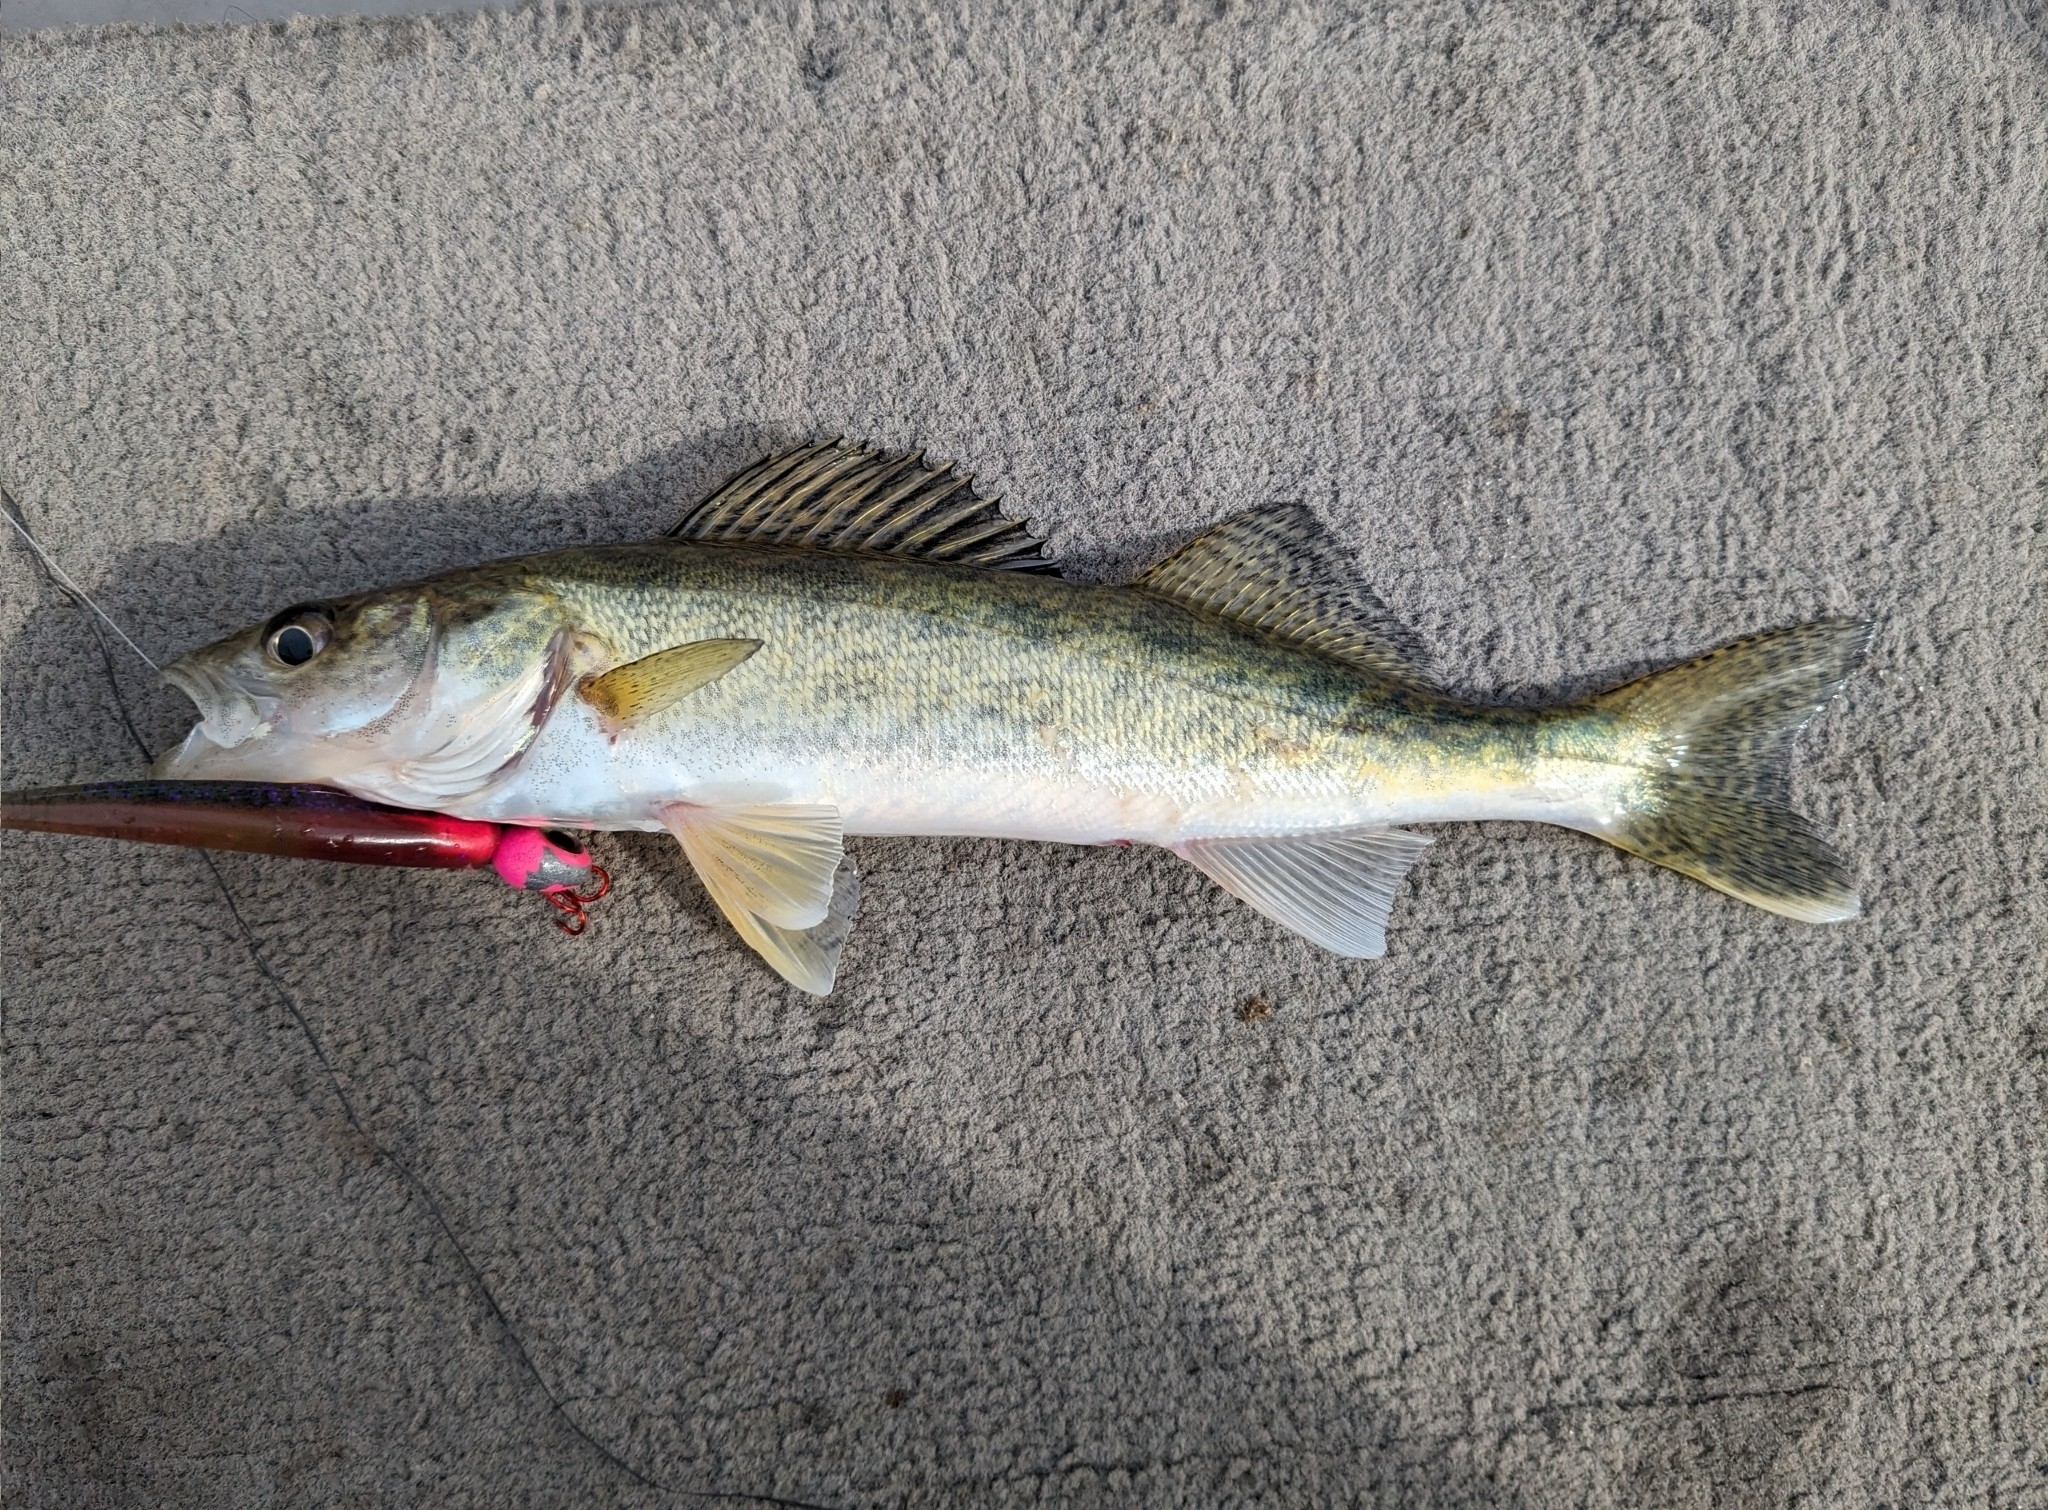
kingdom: Animalia
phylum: Chordata
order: Perciformes
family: Percidae
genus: Sander
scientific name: Sander vitreus
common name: Walleye
